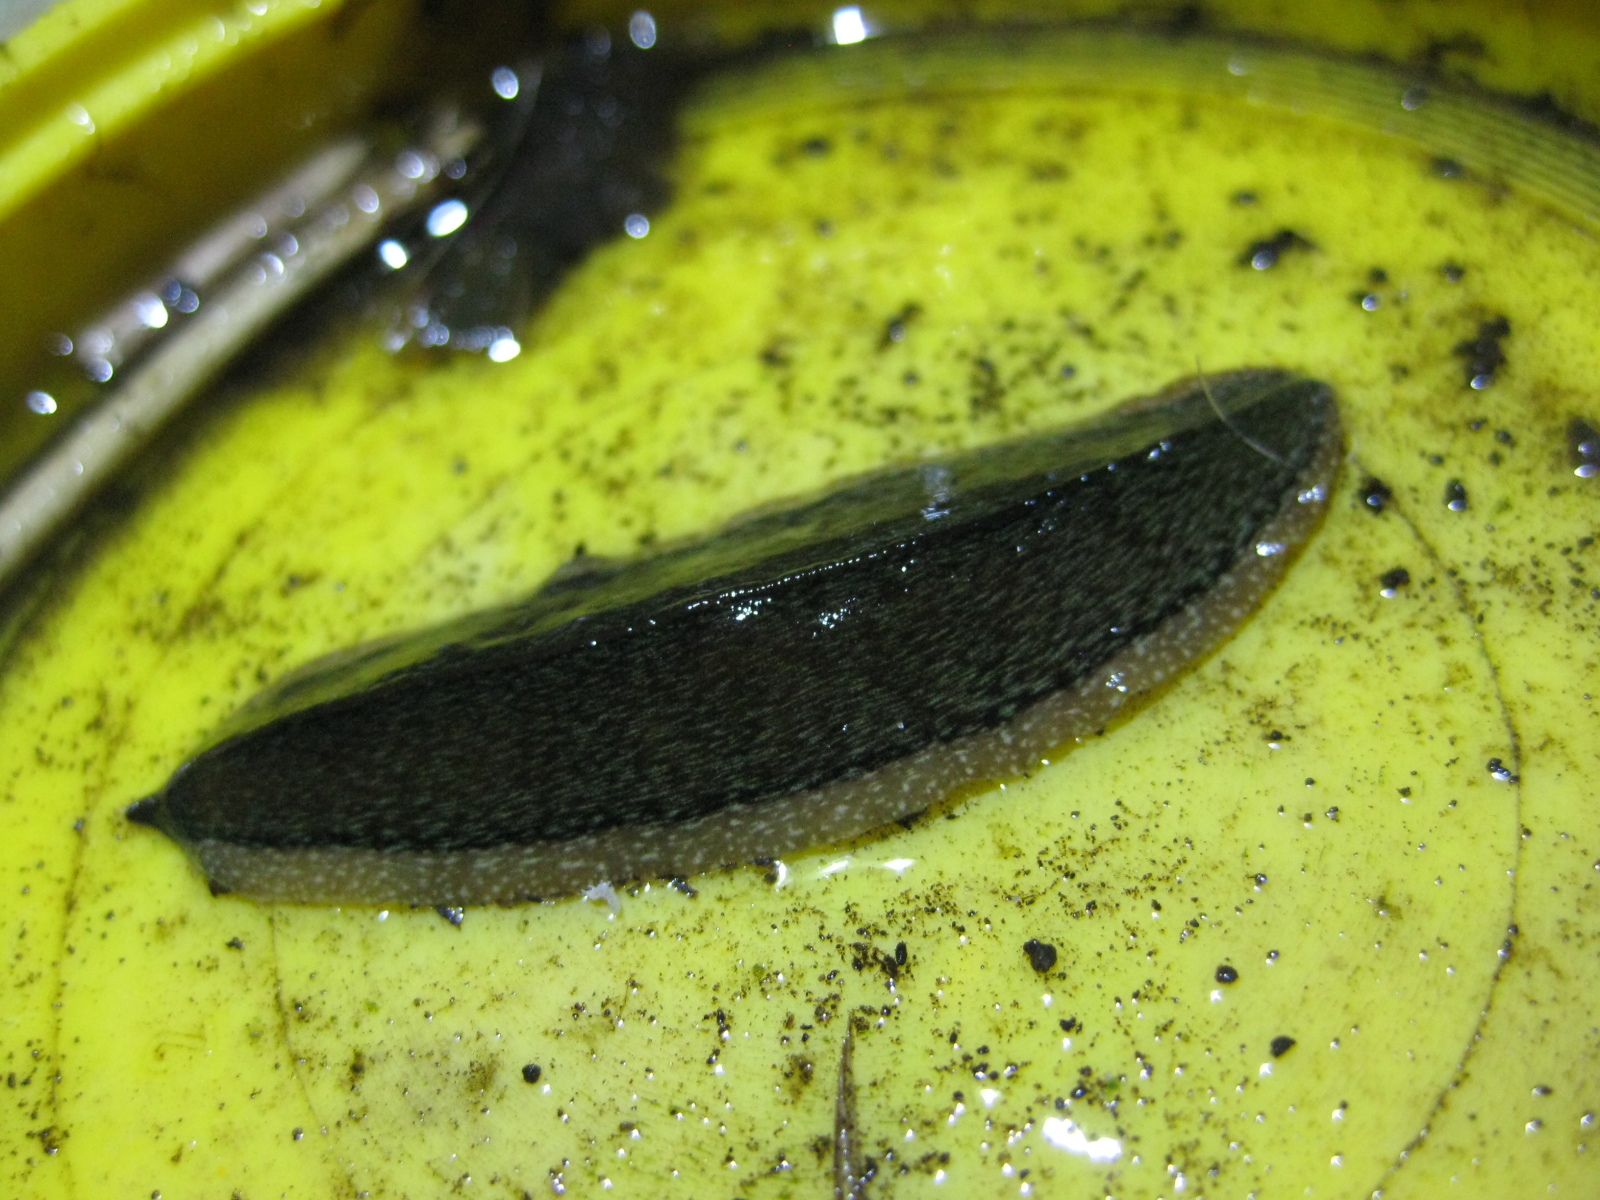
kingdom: Animalia
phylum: Platyhelminthes
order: Tricladida
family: Geoplanidae
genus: Newzealandia
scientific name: Newzealandia graffii
